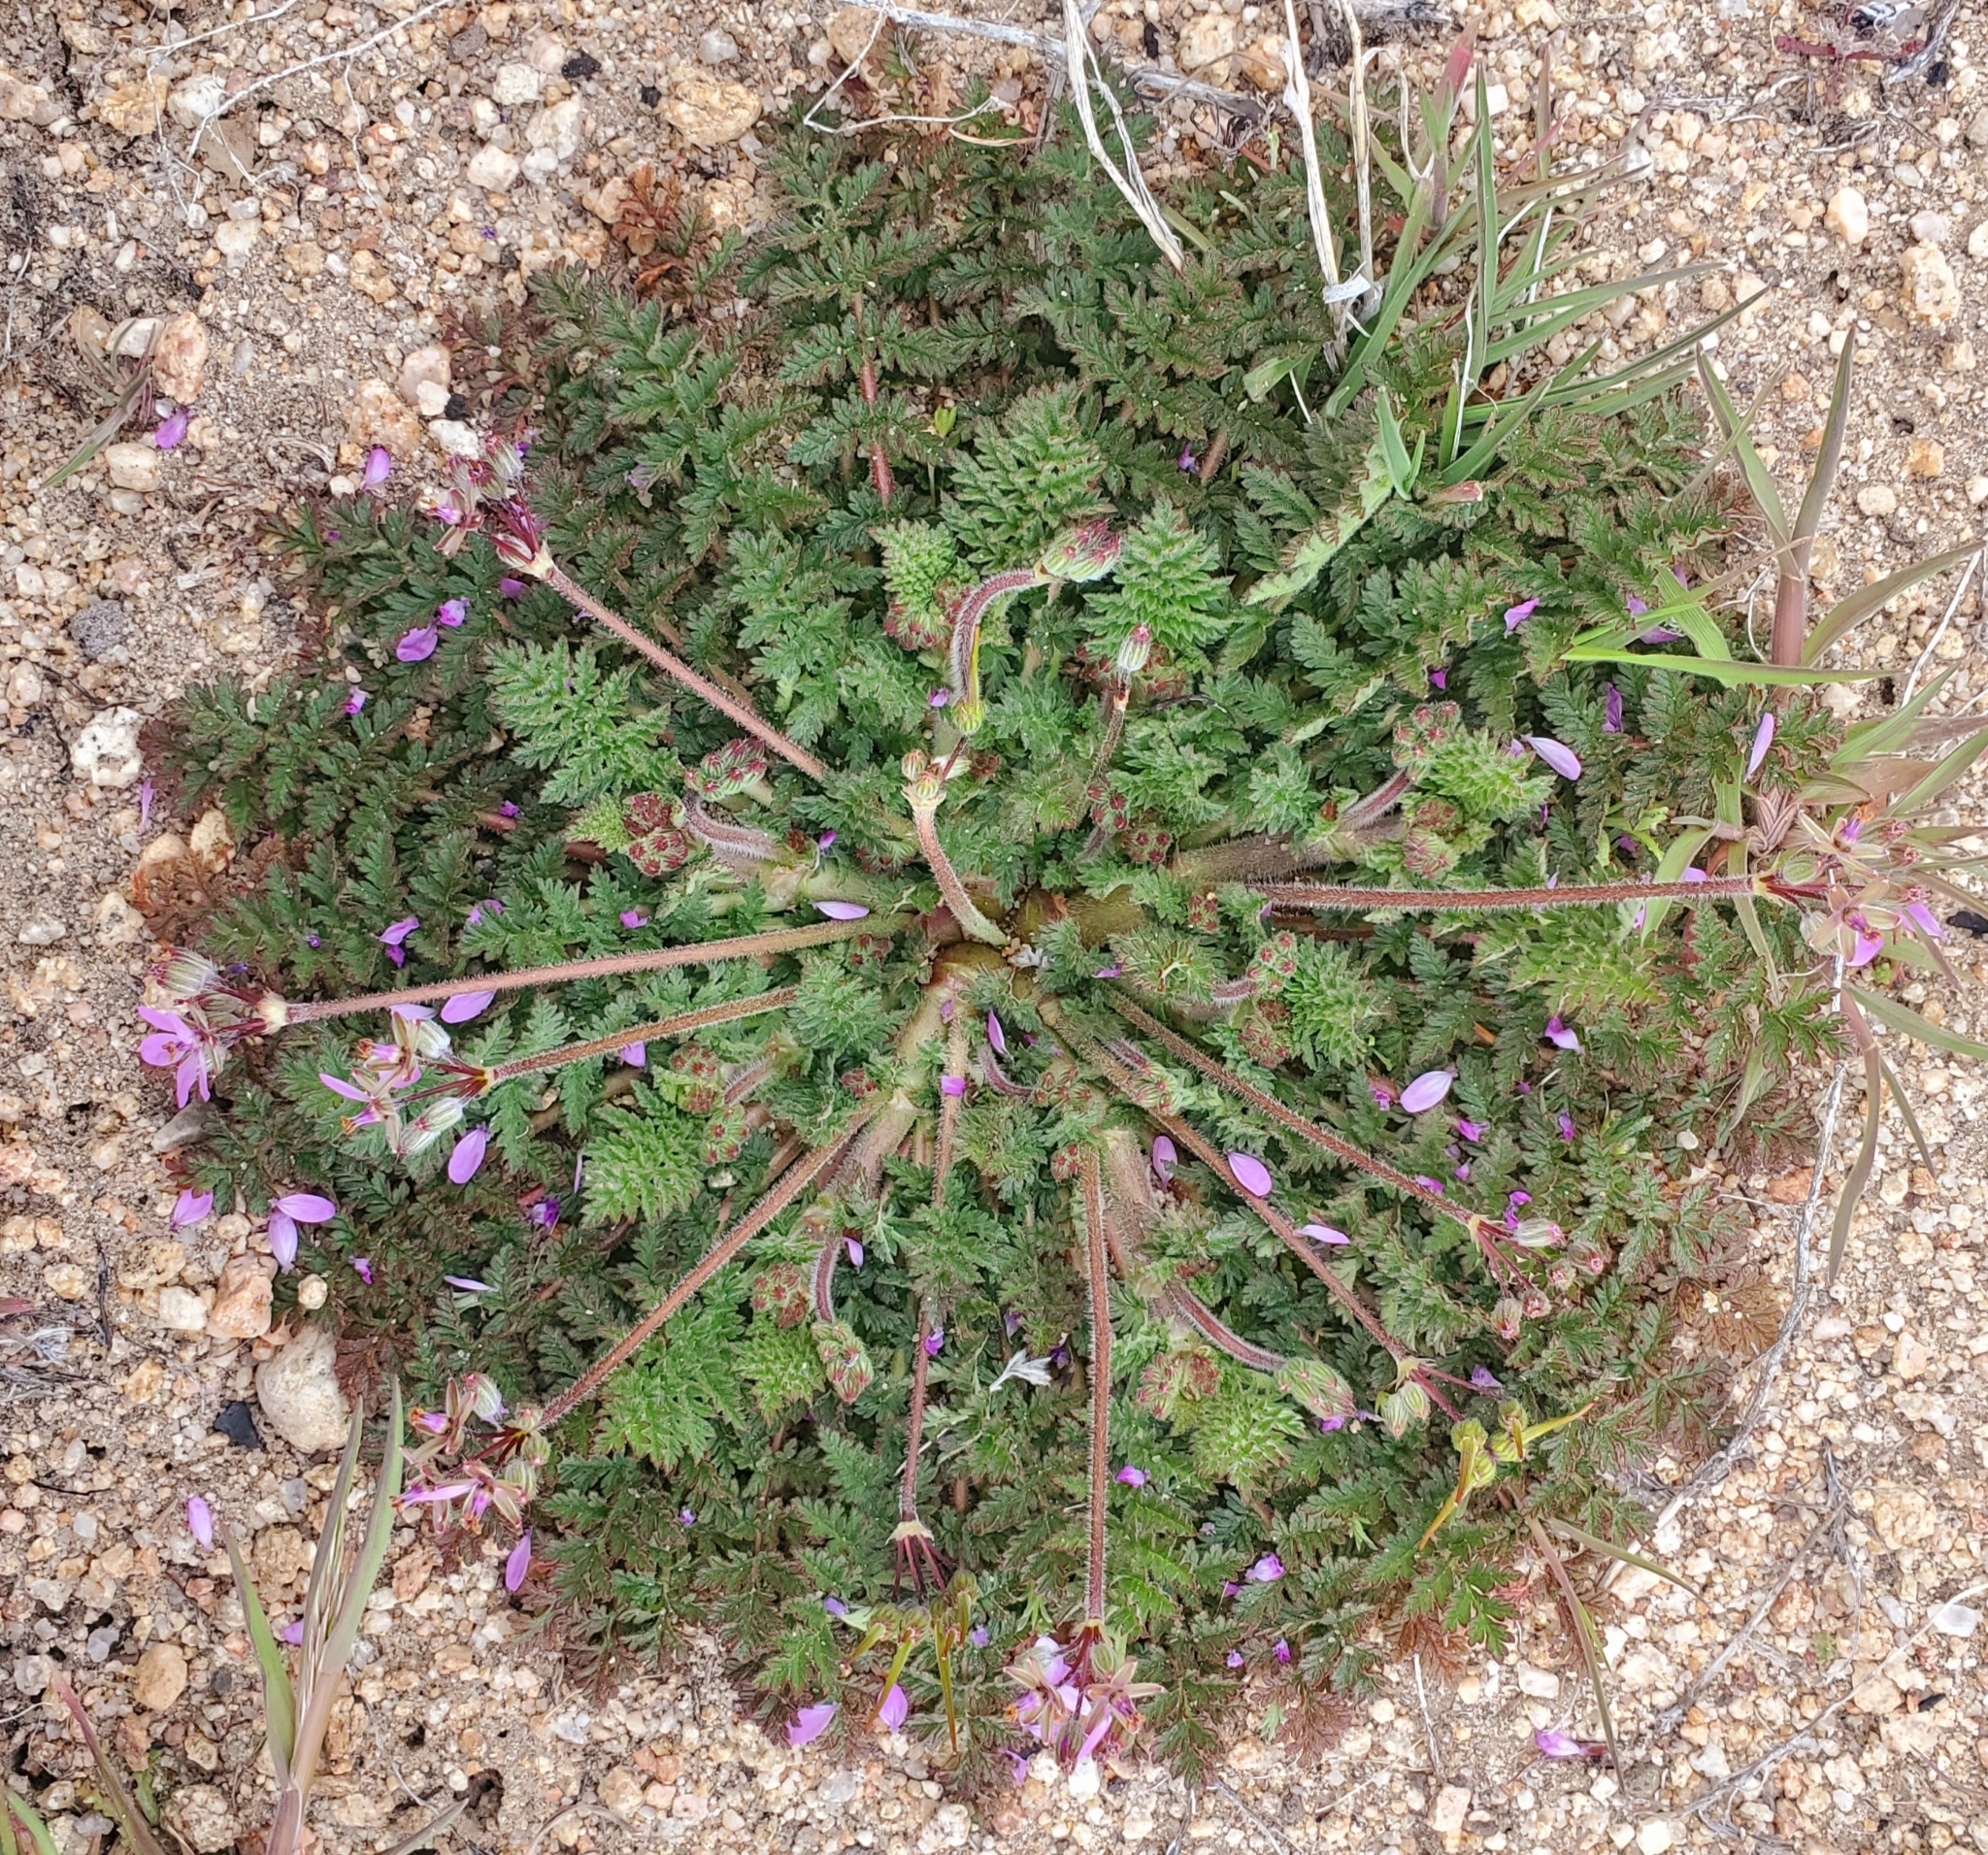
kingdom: Plantae
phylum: Tracheophyta
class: Magnoliopsida
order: Geraniales
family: Geraniaceae
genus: Erodium
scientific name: Erodium cicutarium
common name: Common stork's-bill
